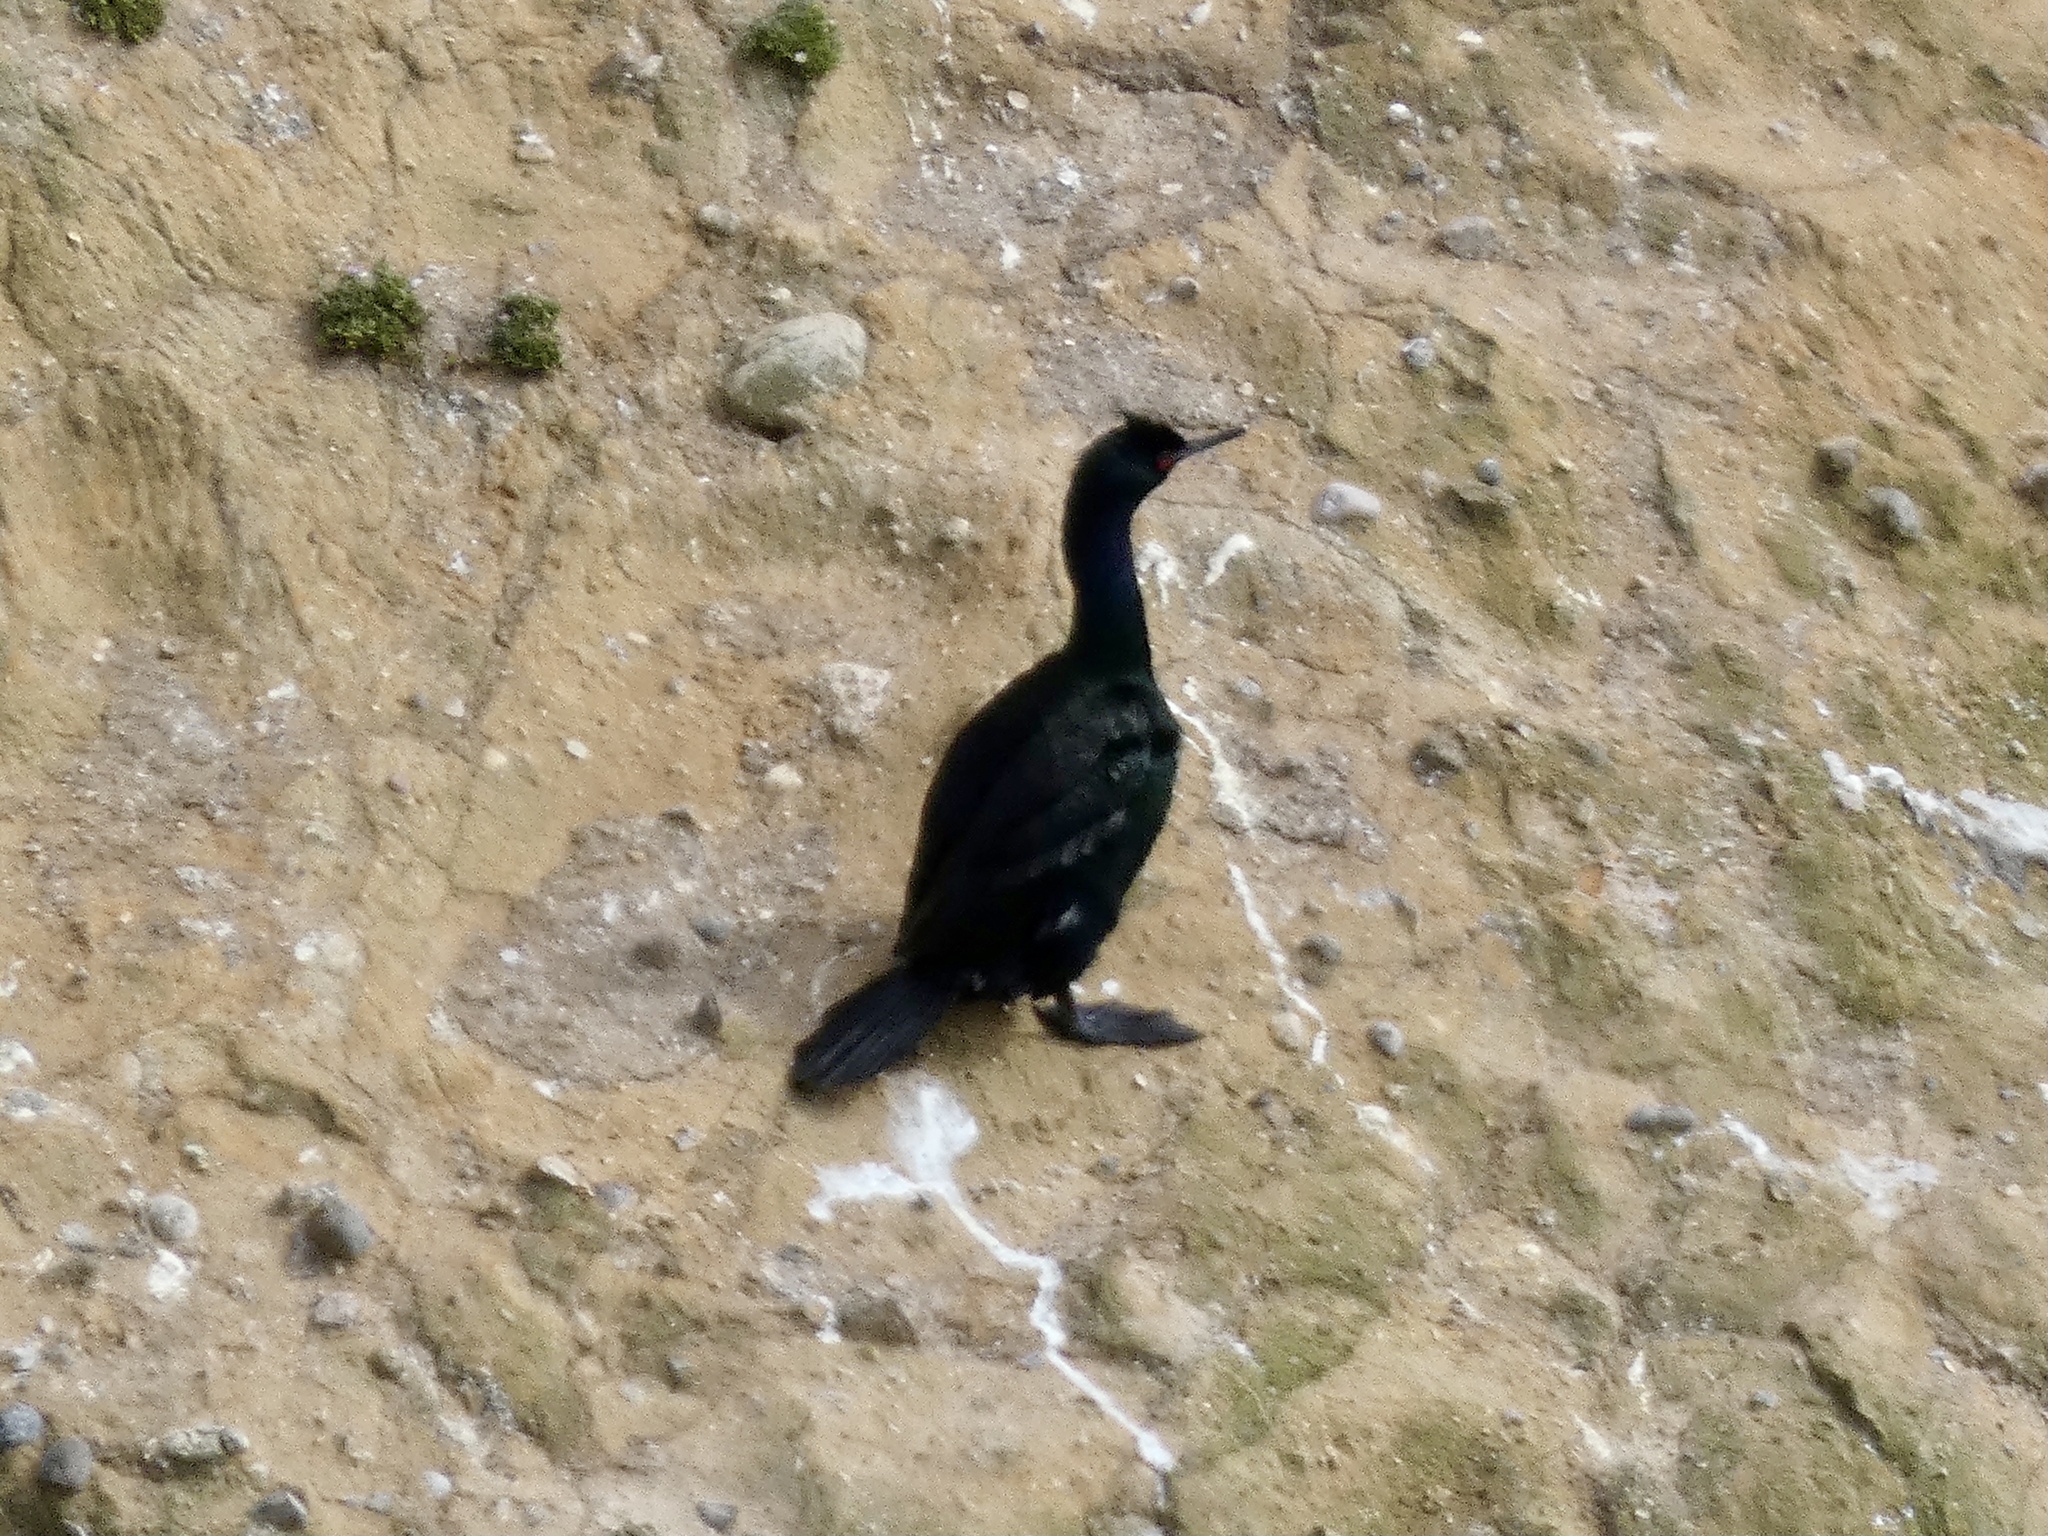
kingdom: Animalia
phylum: Chordata
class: Aves
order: Suliformes
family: Phalacrocoracidae
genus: Phalacrocorax
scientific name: Phalacrocorax pelagicus
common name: Pelagic cormorant
